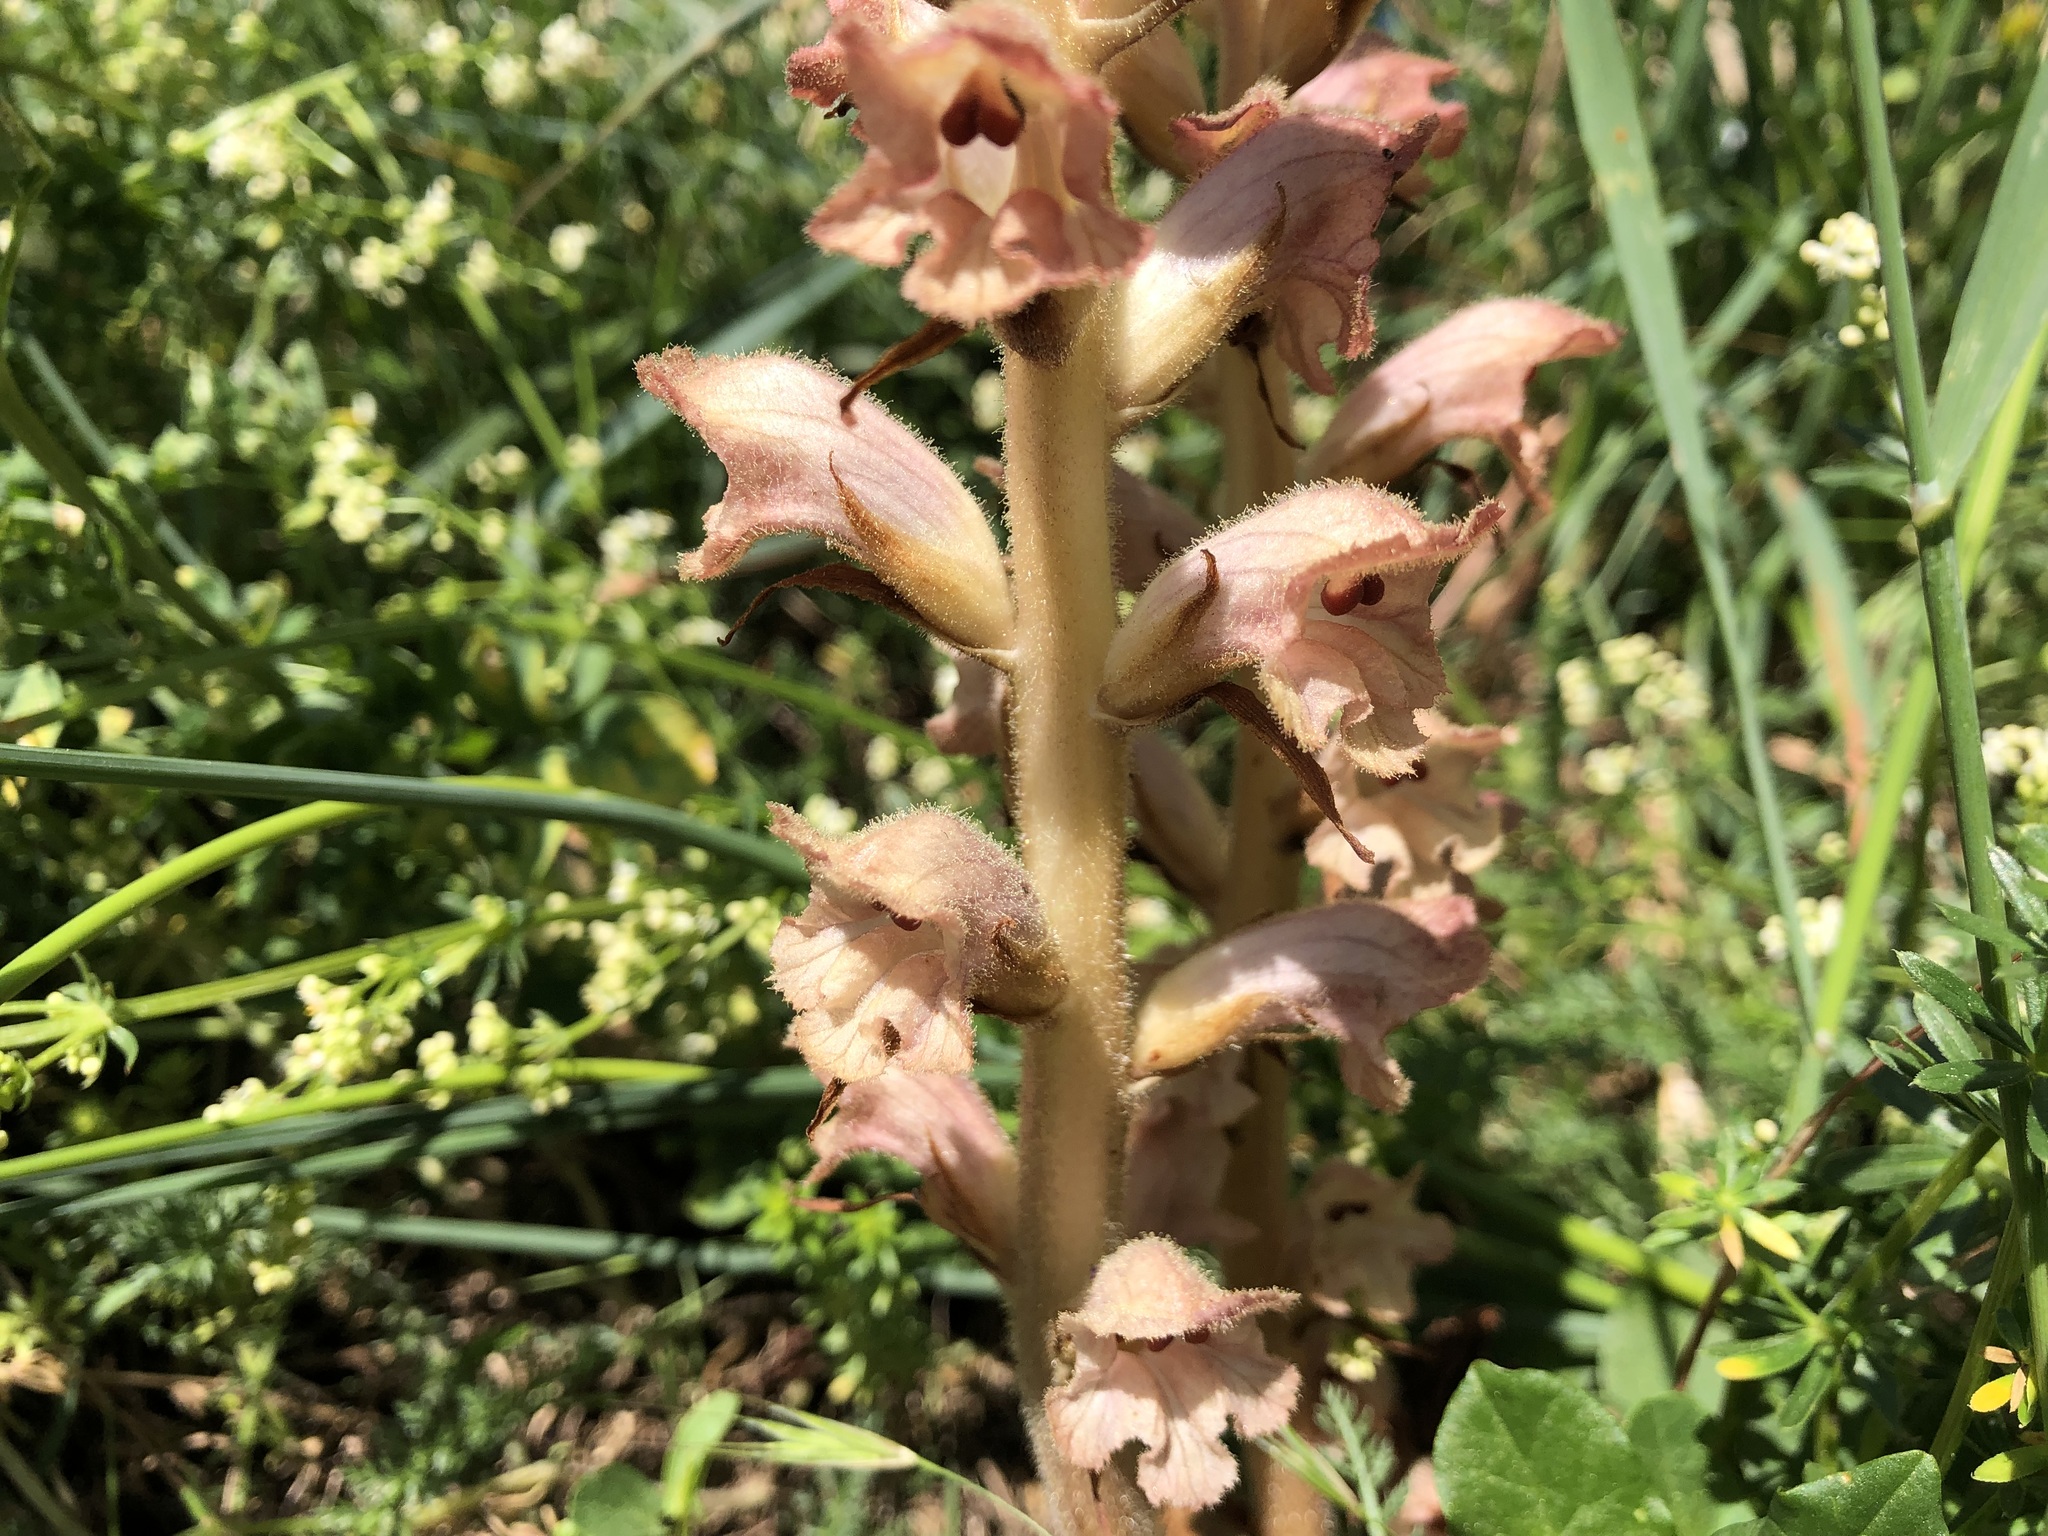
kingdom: Plantae
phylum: Tracheophyta
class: Magnoliopsida
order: Lamiales
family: Orobanchaceae
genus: Orobanche
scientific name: Orobanche caryophyllacea
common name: Bedstraw broomrape
